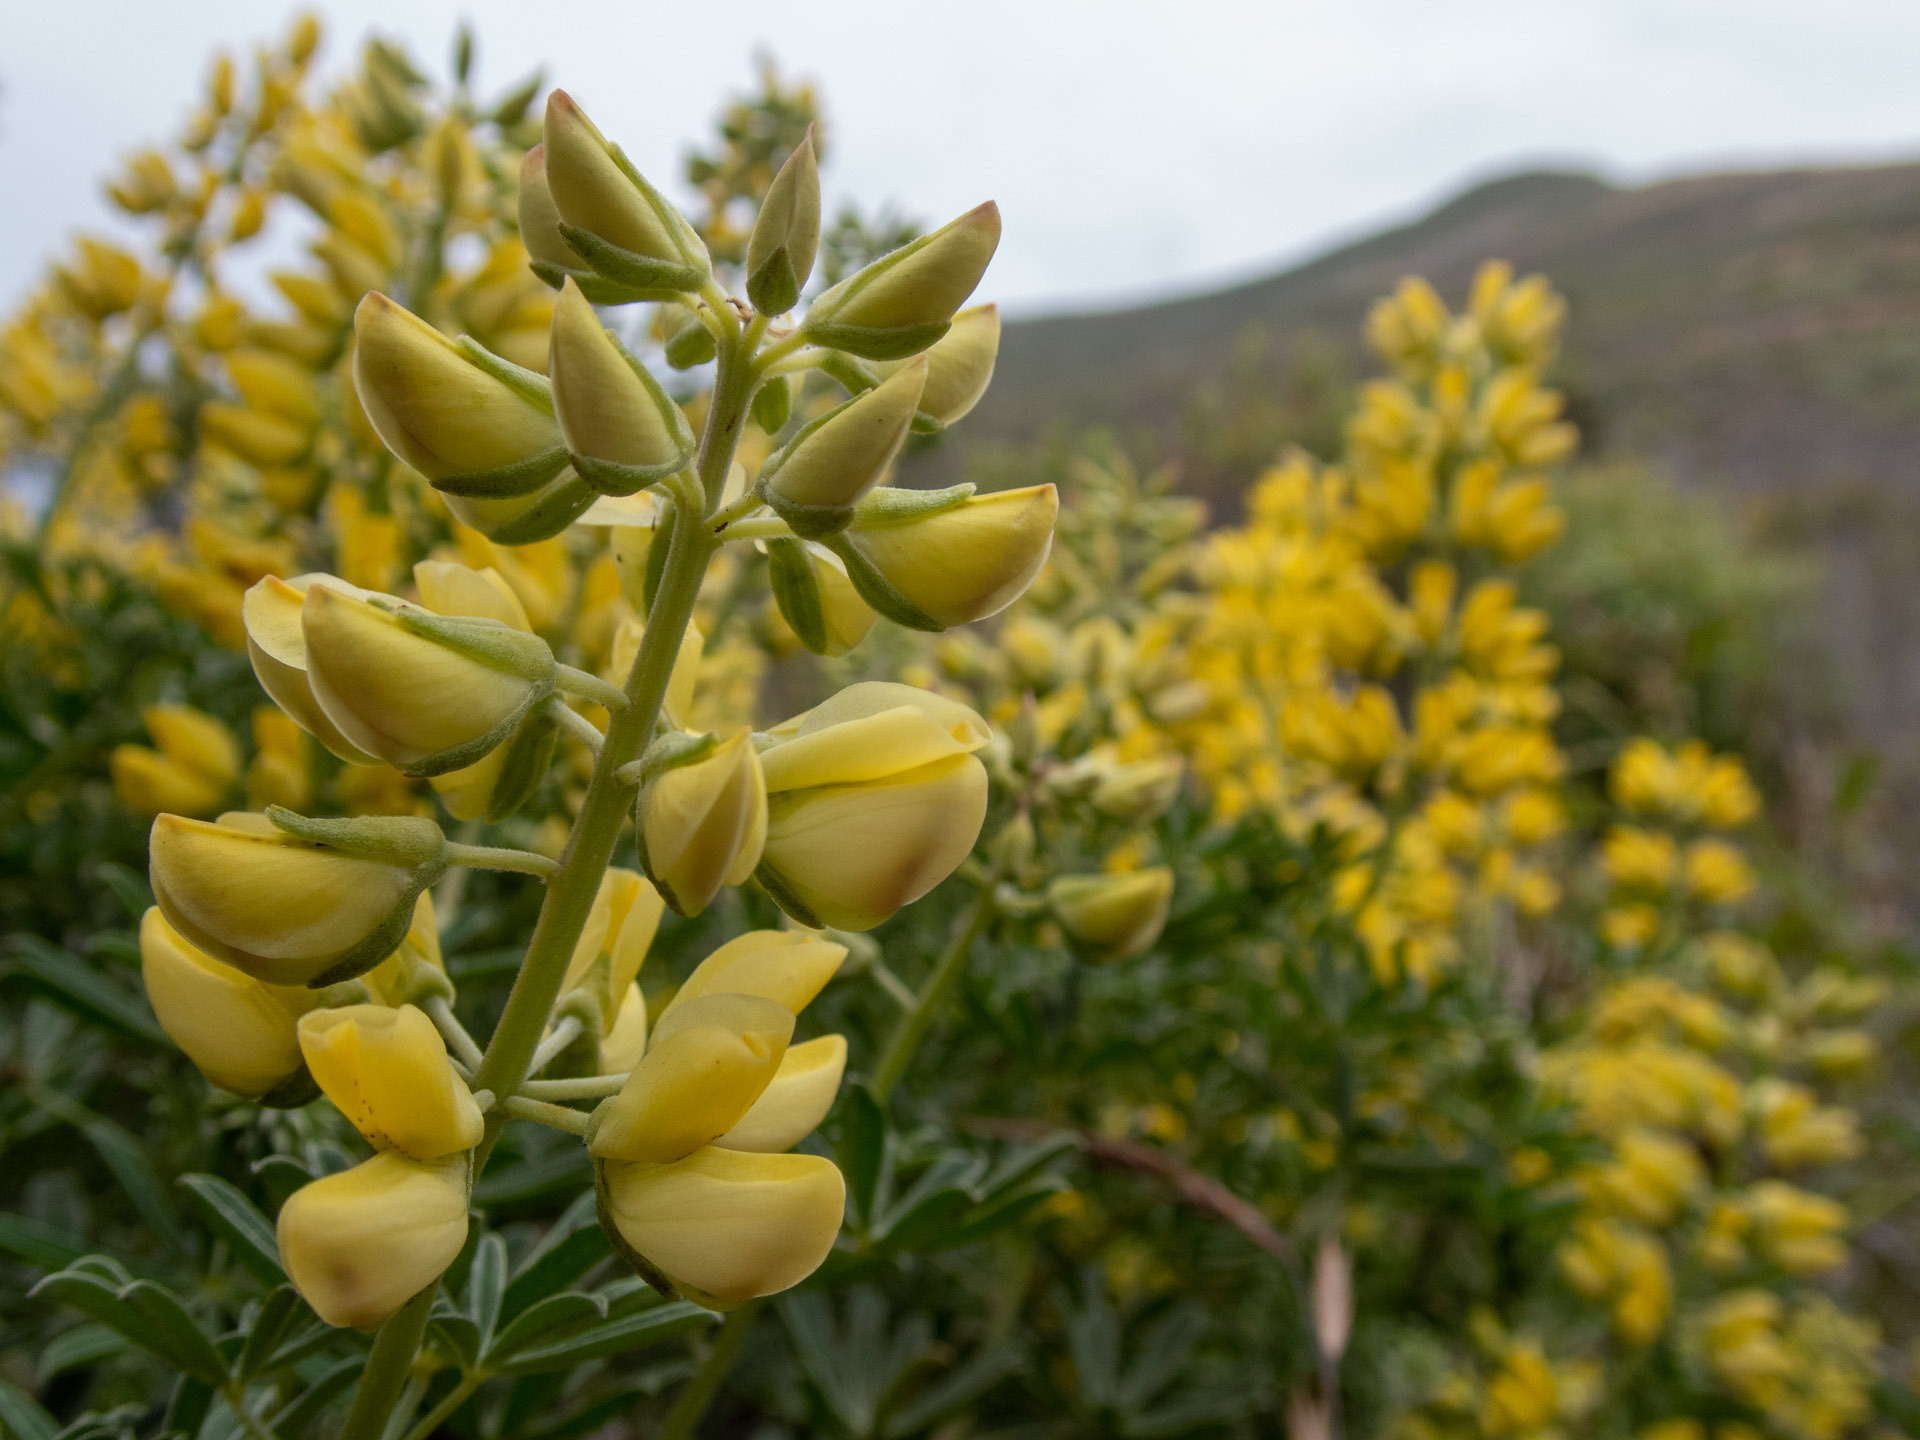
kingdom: Plantae
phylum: Tracheophyta
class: Magnoliopsida
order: Fabales
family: Fabaceae
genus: Lupinus
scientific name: Lupinus arboreus
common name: Yellow bush lupine
